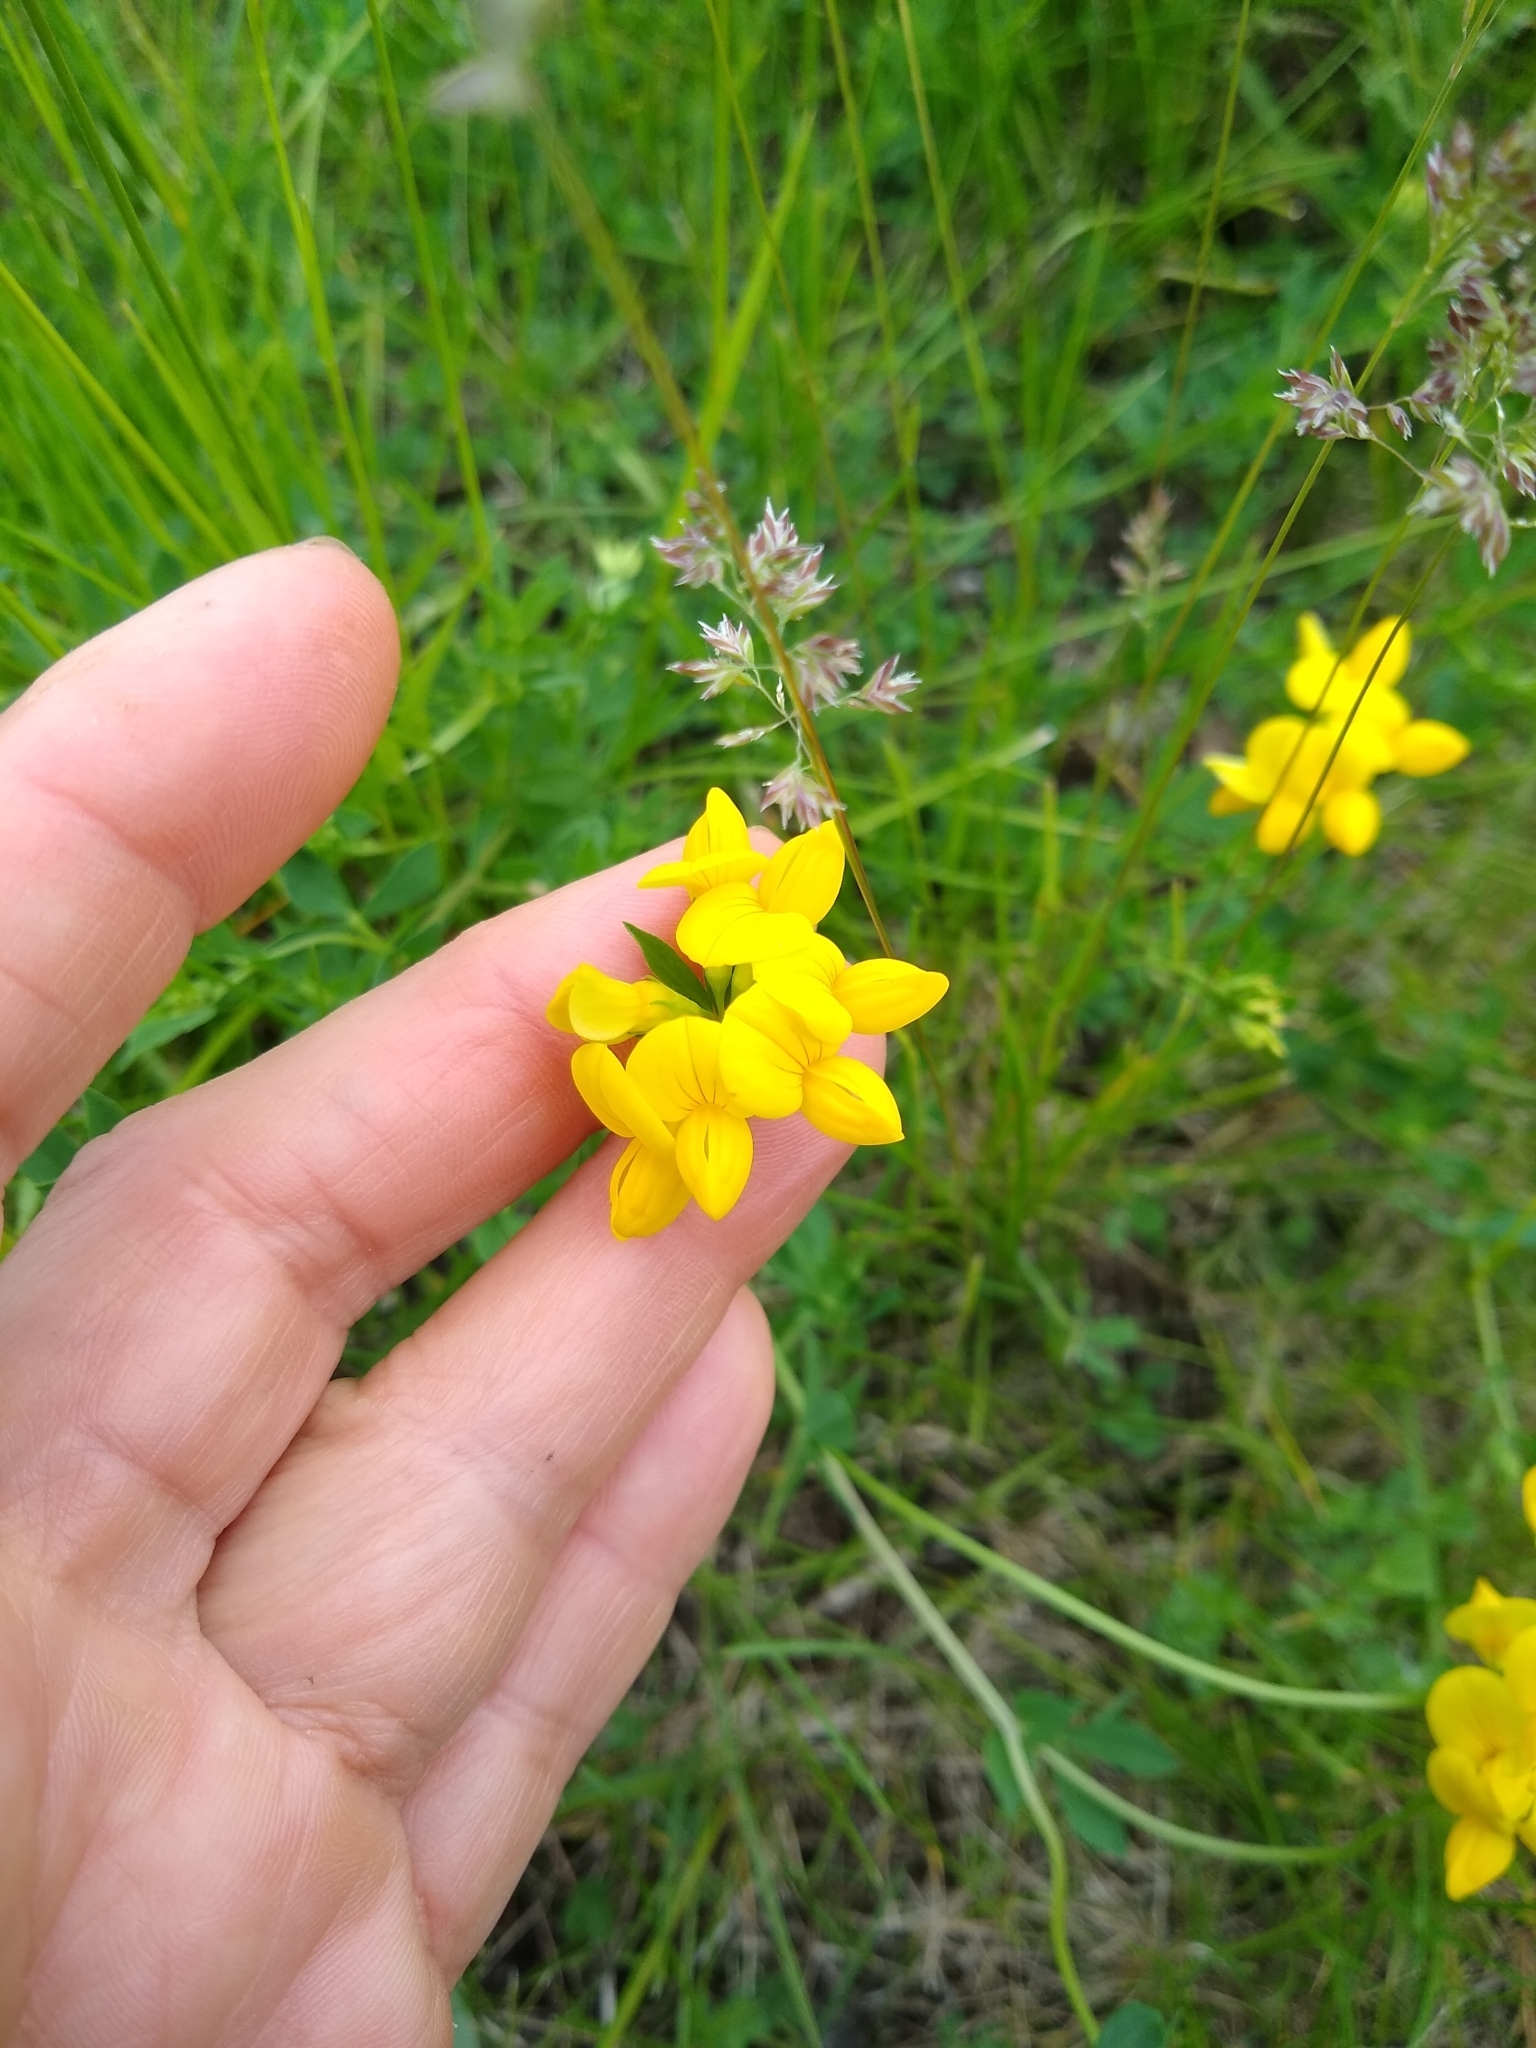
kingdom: Plantae
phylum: Tracheophyta
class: Magnoliopsida
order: Fabales
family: Fabaceae
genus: Lotus
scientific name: Lotus corniculatus
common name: Common bird's-foot-trefoil
